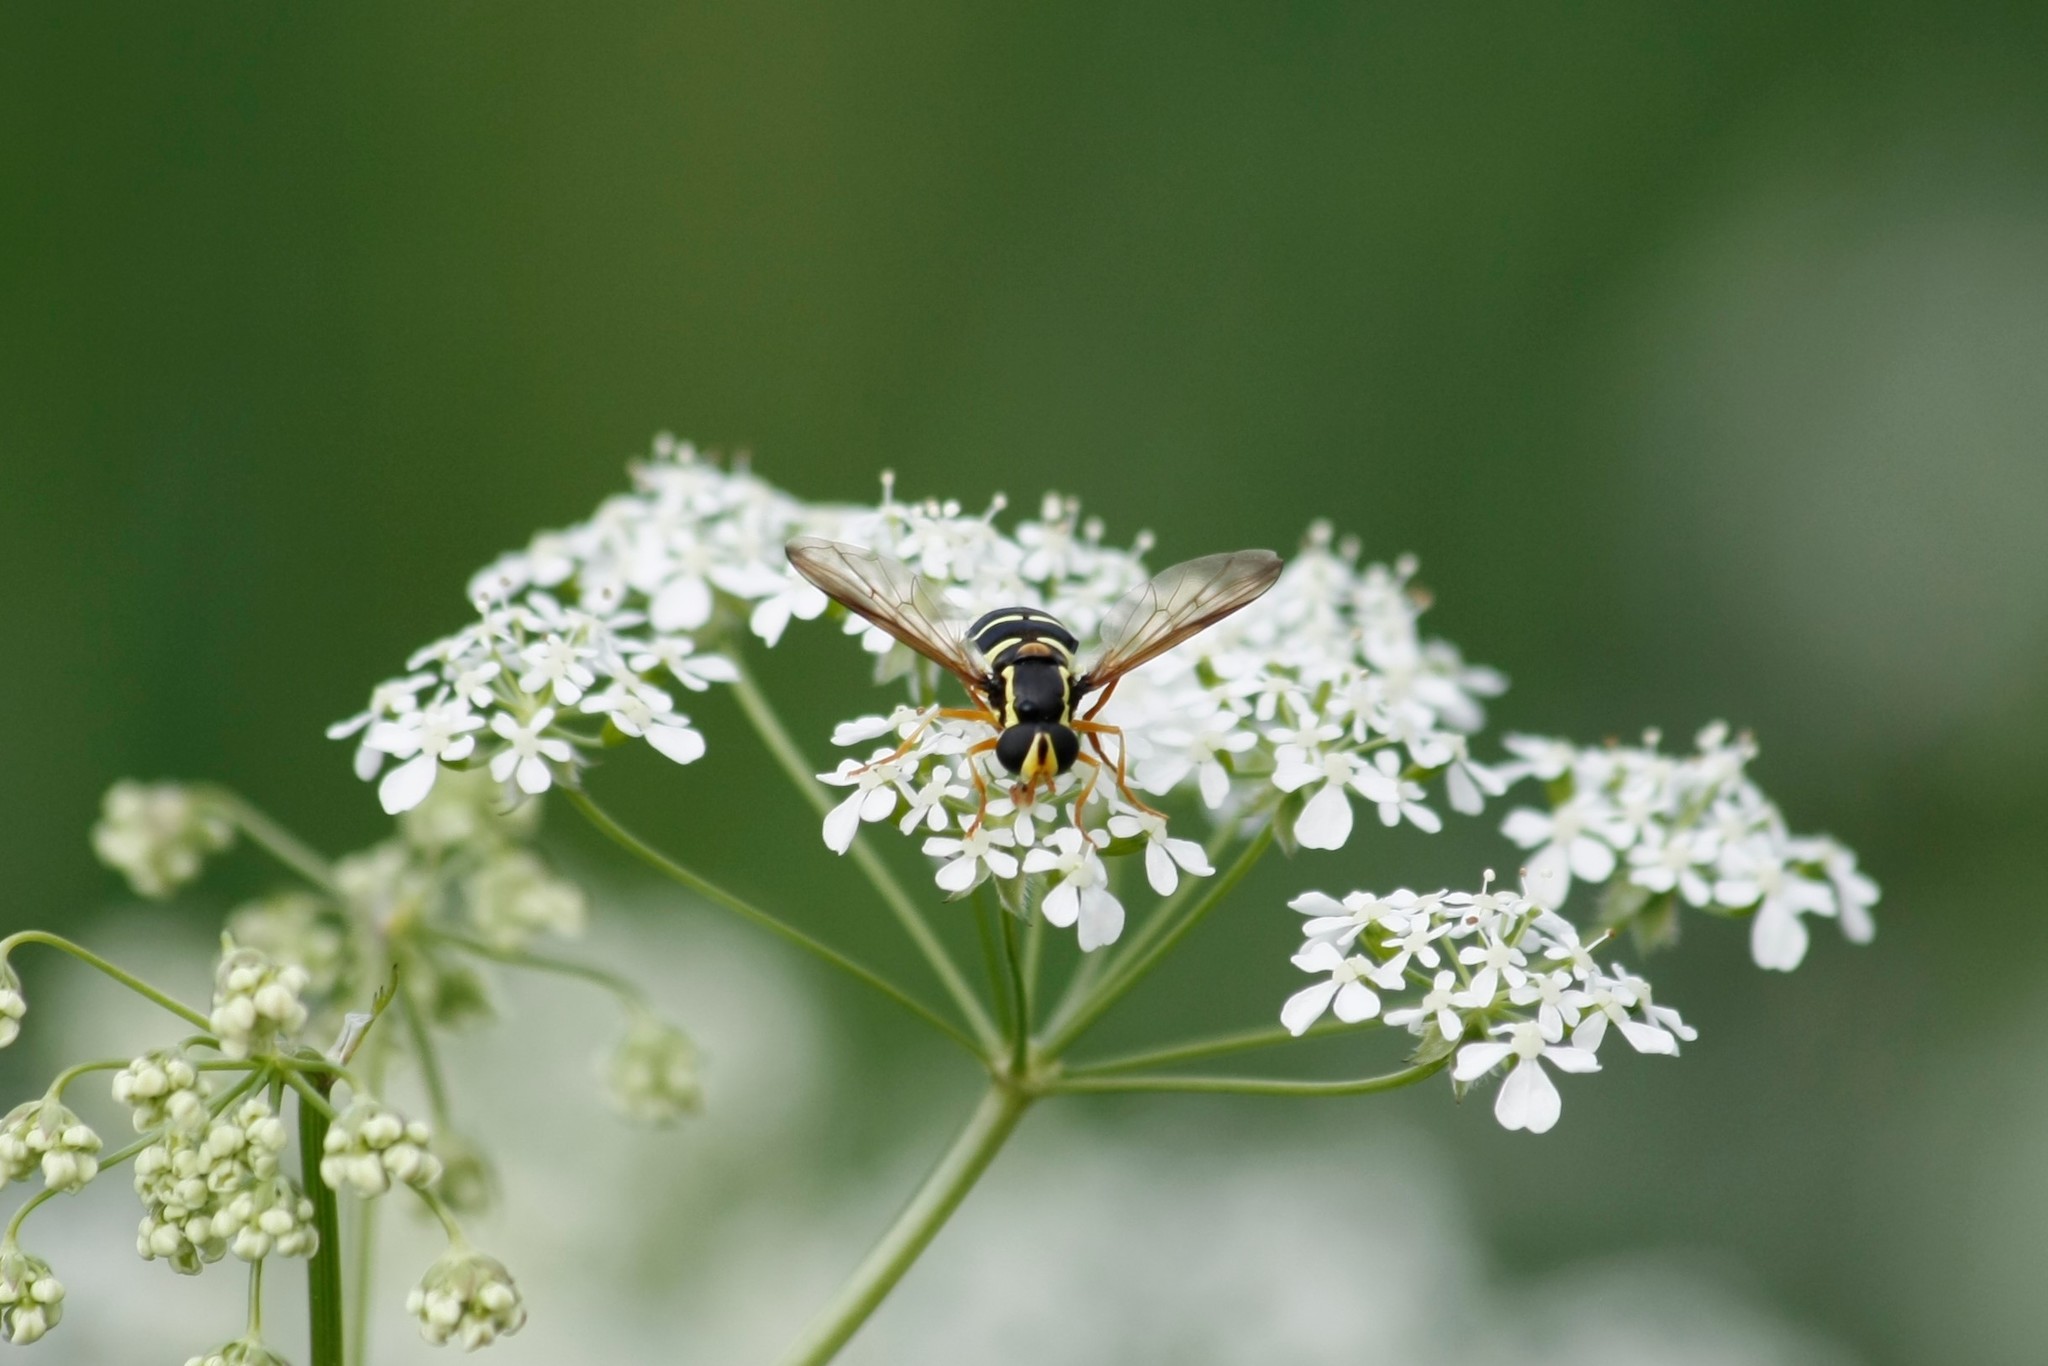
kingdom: Animalia
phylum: Arthropoda
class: Insecta
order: Diptera
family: Syrphidae
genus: Philhelius
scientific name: Philhelius citrofasciata
